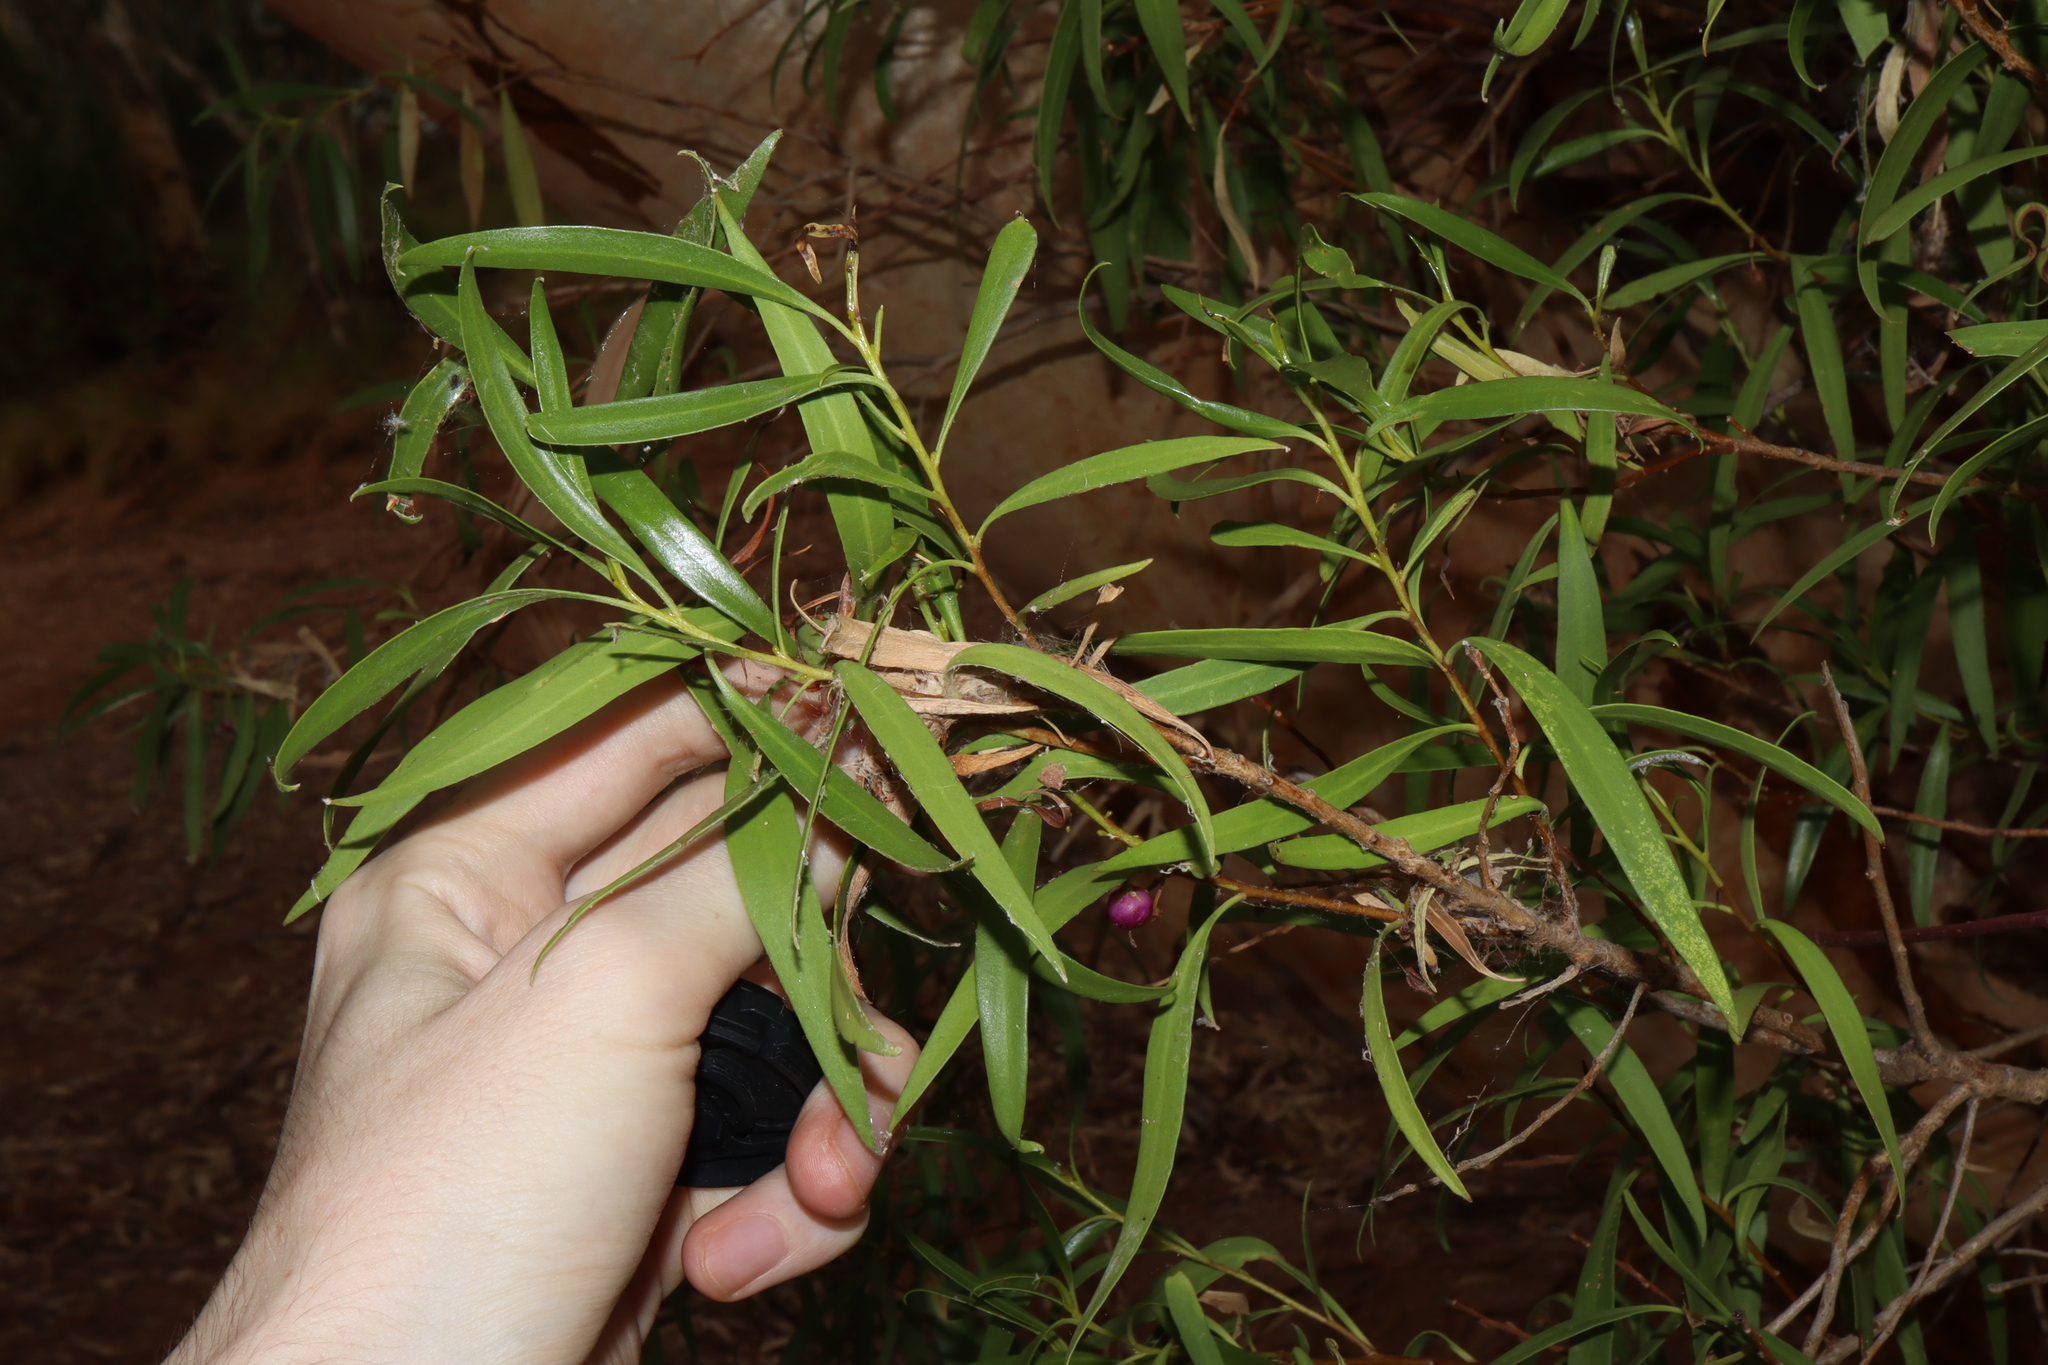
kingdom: Plantae
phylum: Tracheophyta
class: Magnoliopsida
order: Lamiales
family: Scrophulariaceae
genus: Myoporum
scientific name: Myoporum montanum
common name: Waterbush
